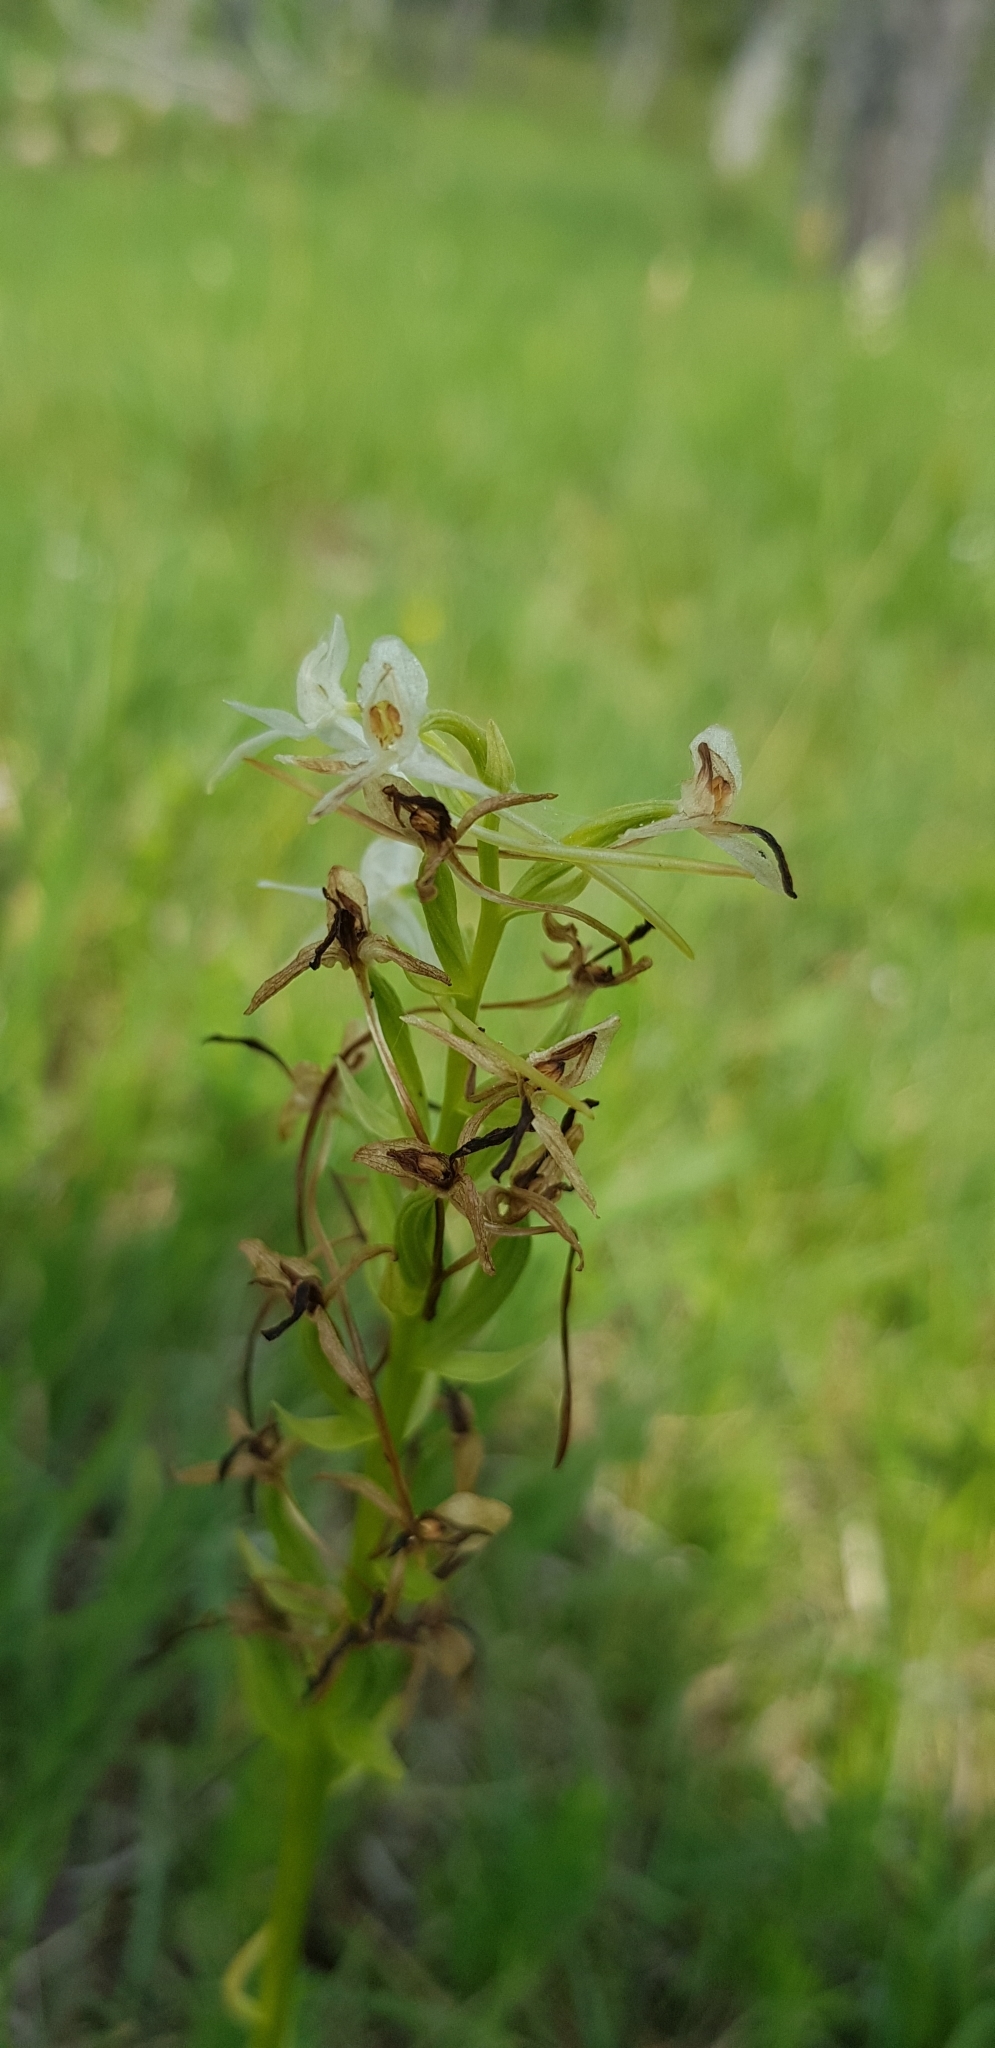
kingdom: Plantae
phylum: Tracheophyta
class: Liliopsida
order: Asparagales
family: Orchidaceae
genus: Platanthera
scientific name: Platanthera bifolia
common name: Lesser butterfly-orchid
